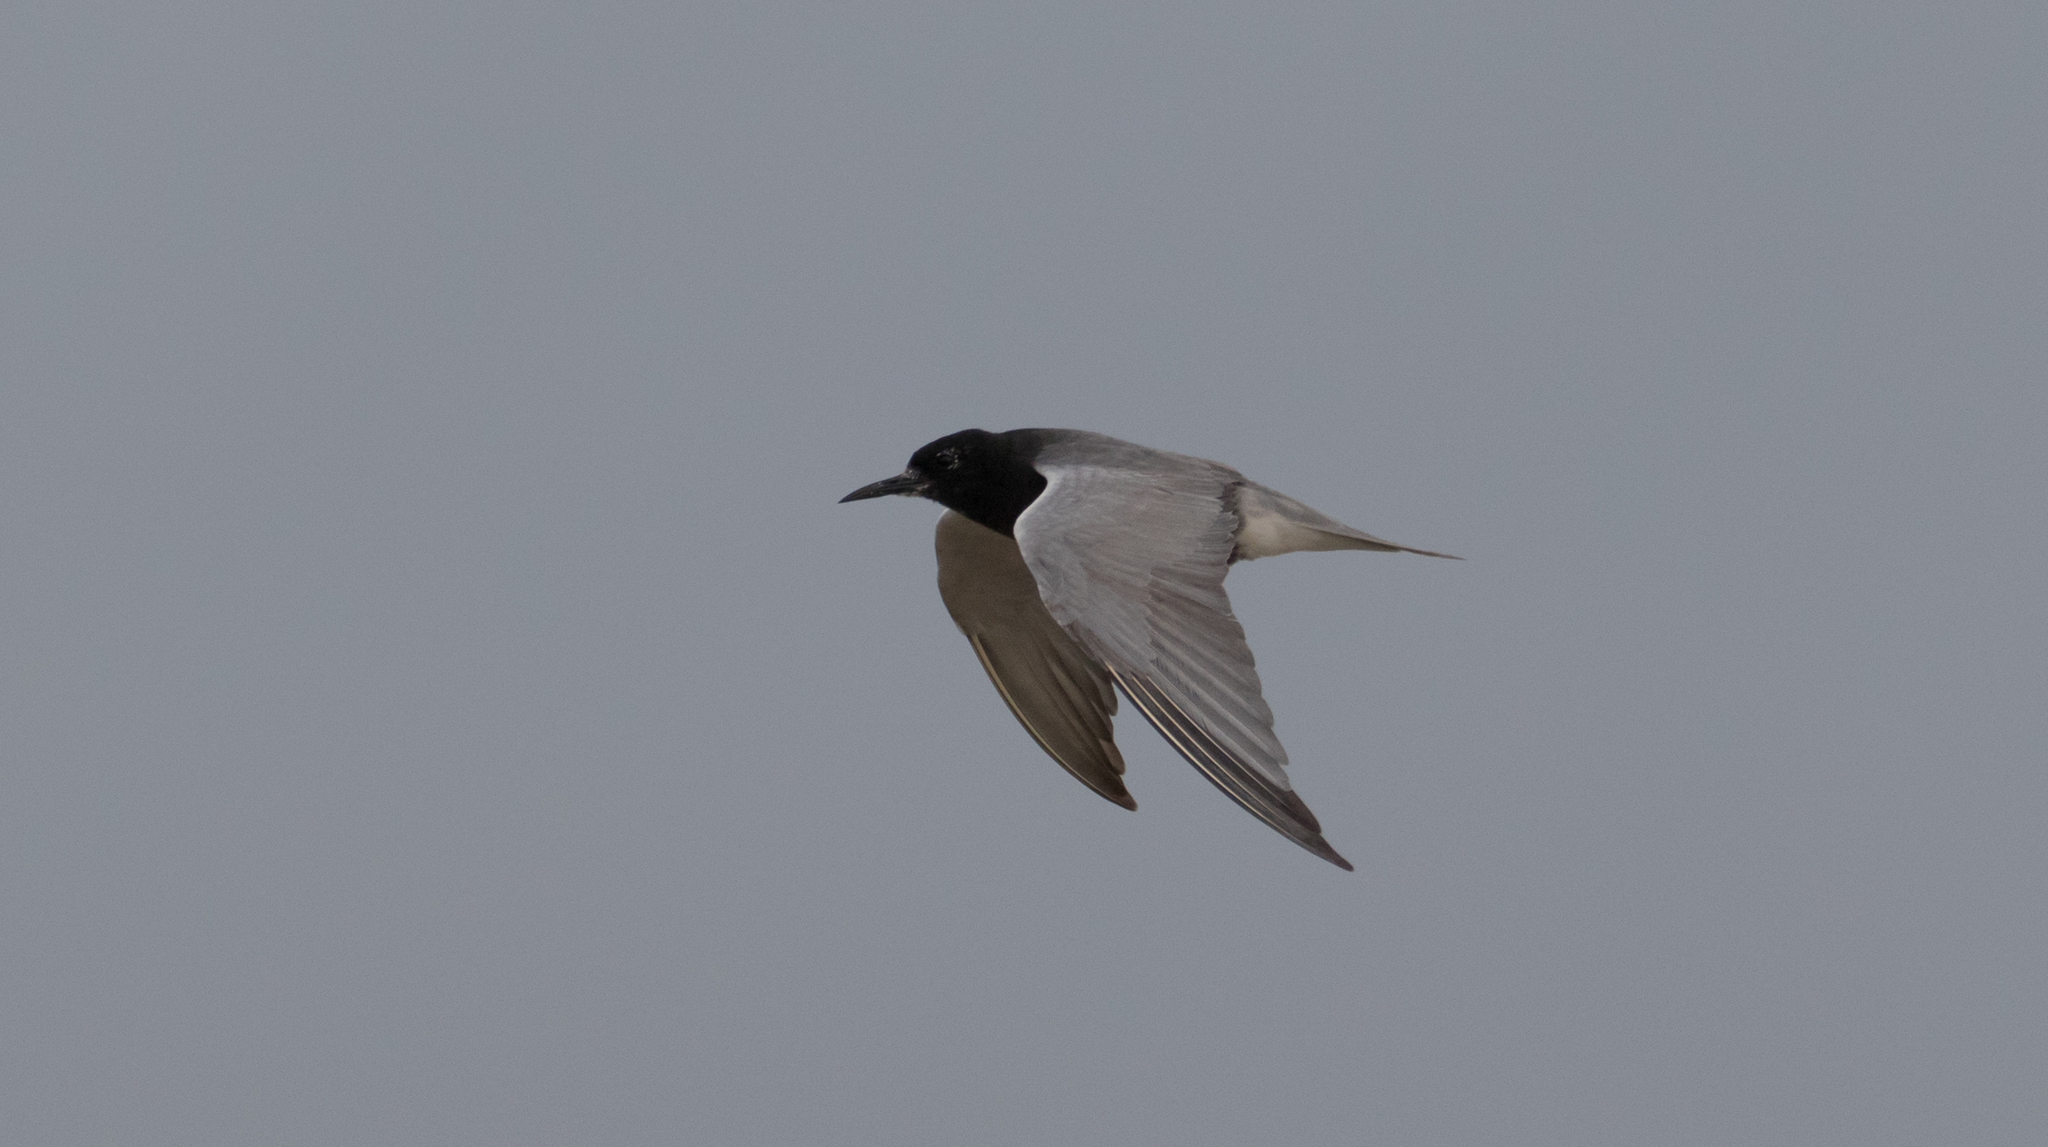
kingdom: Animalia
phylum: Chordata
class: Aves
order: Charadriiformes
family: Laridae
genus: Chlidonias
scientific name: Chlidonias niger
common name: Black tern
